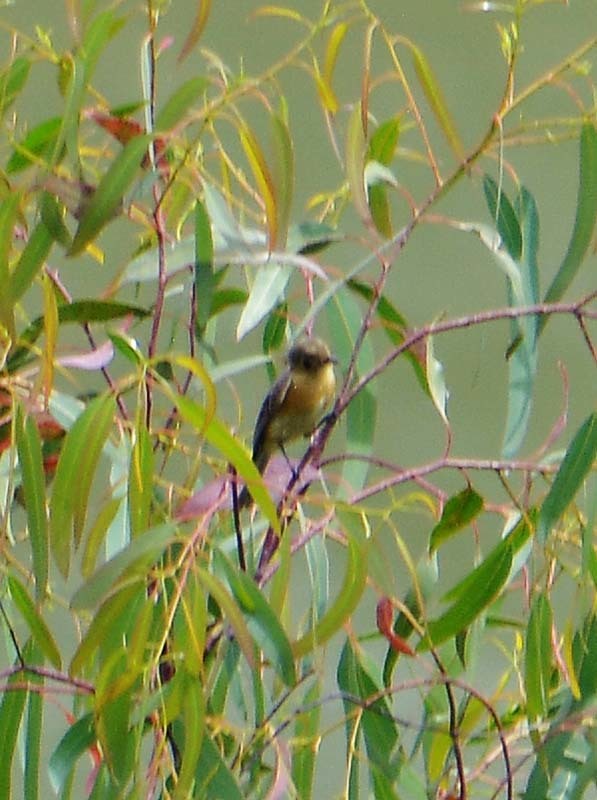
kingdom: Animalia
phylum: Chordata
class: Aves
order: Passeriformes
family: Tyrannidae
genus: Empidonax
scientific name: Empidonax fulvifrons
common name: Buff-breasted flycatcher
